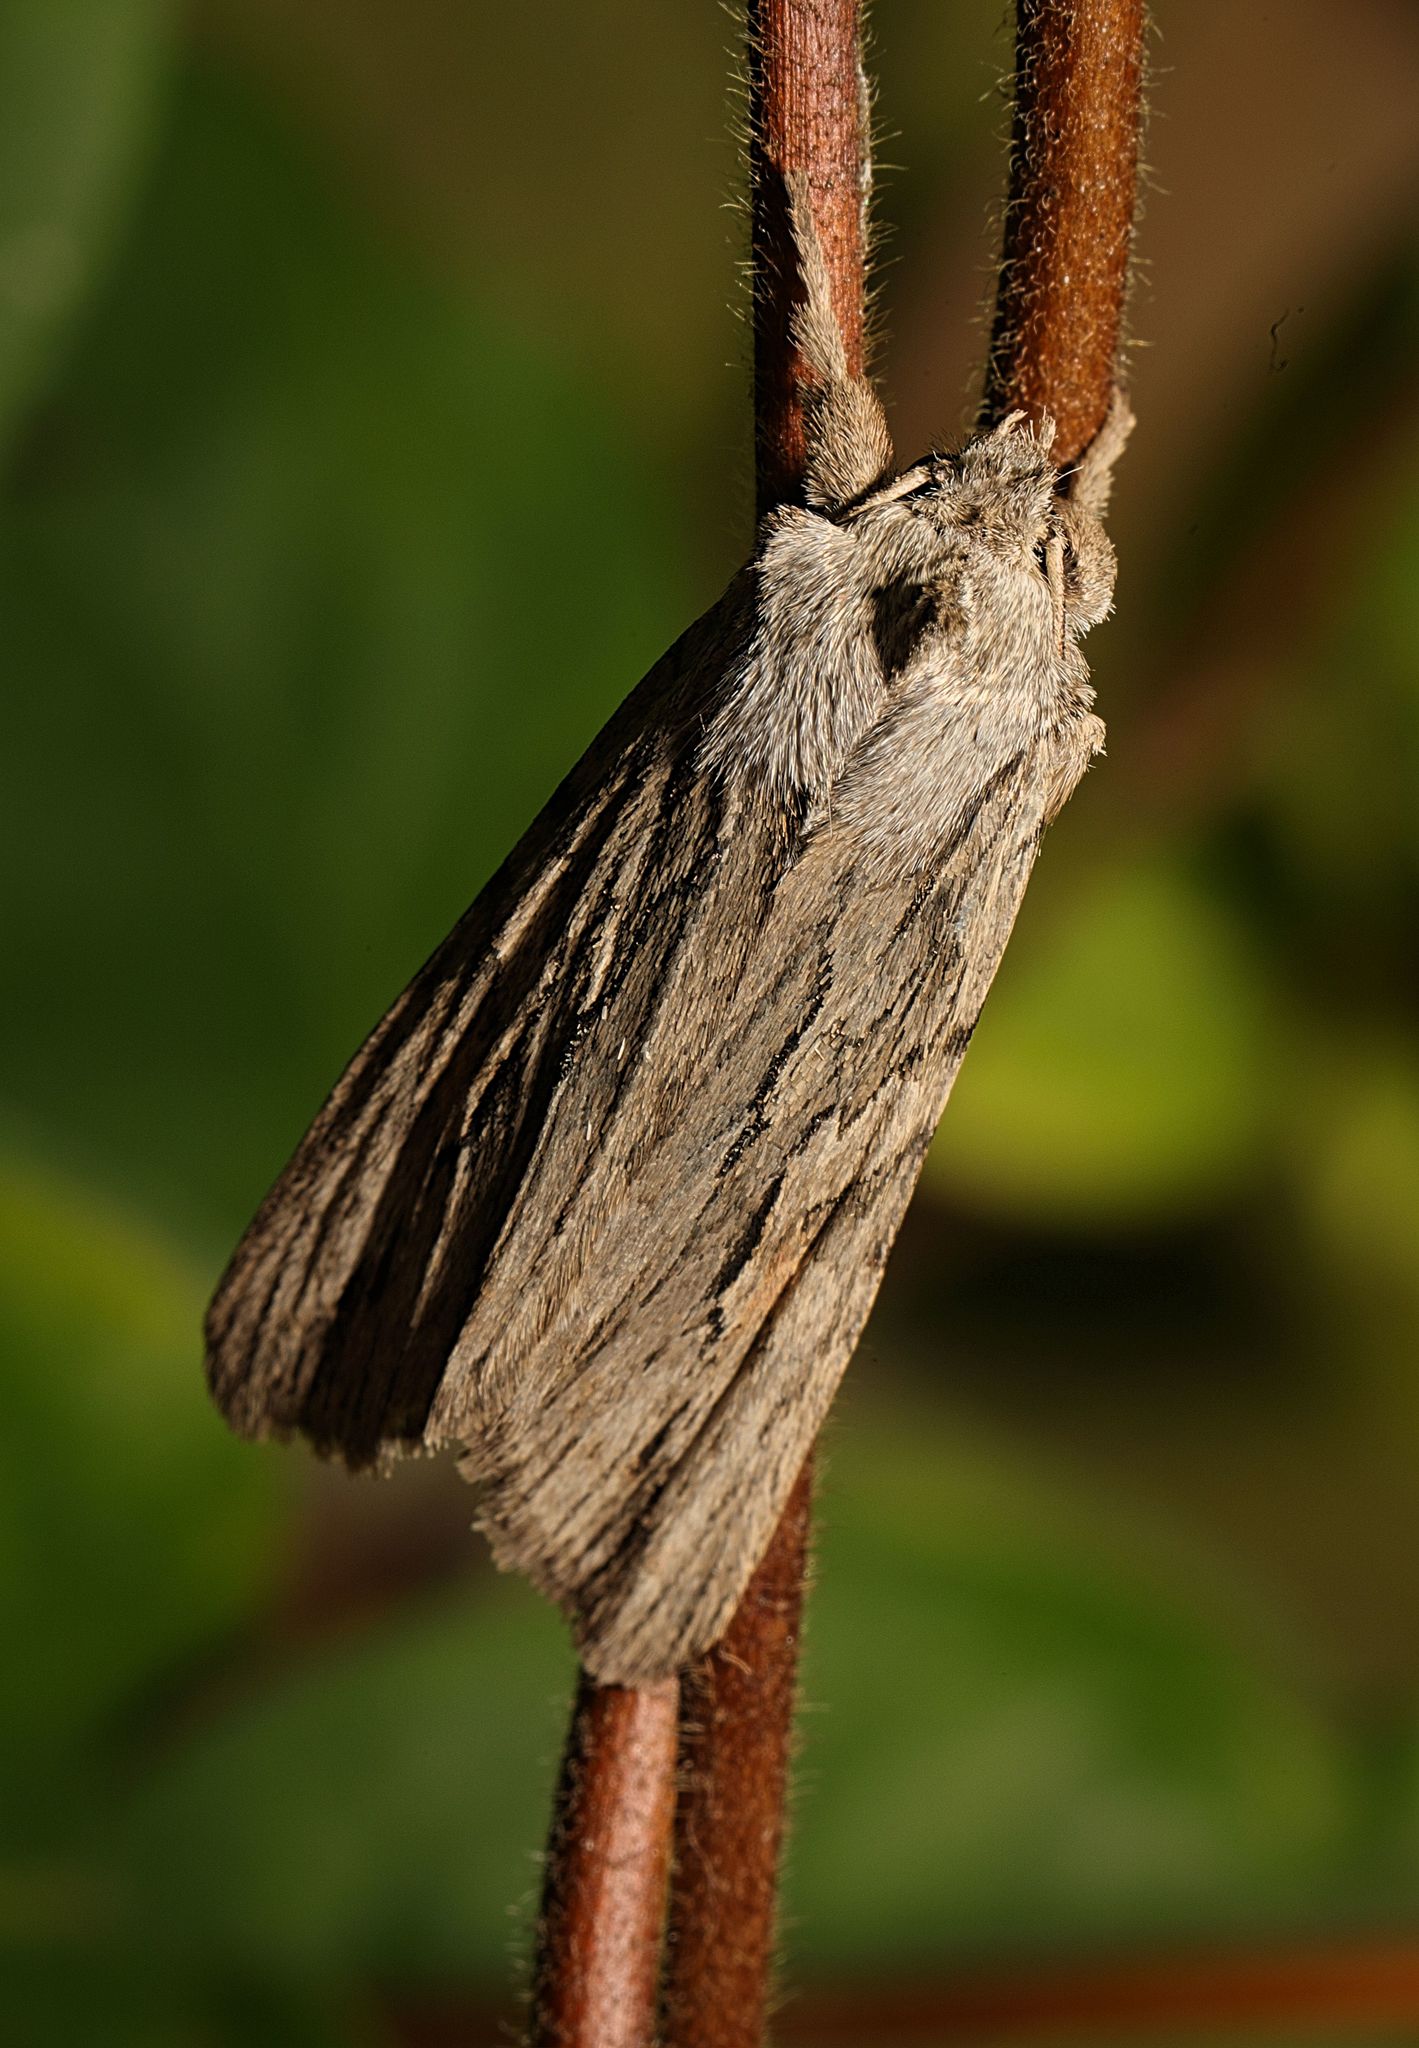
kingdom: Animalia
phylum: Arthropoda
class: Insecta
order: Lepidoptera
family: Noctuidae
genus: Lithophane
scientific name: Lithophane leautieri
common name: Blair's shoulder-knot
